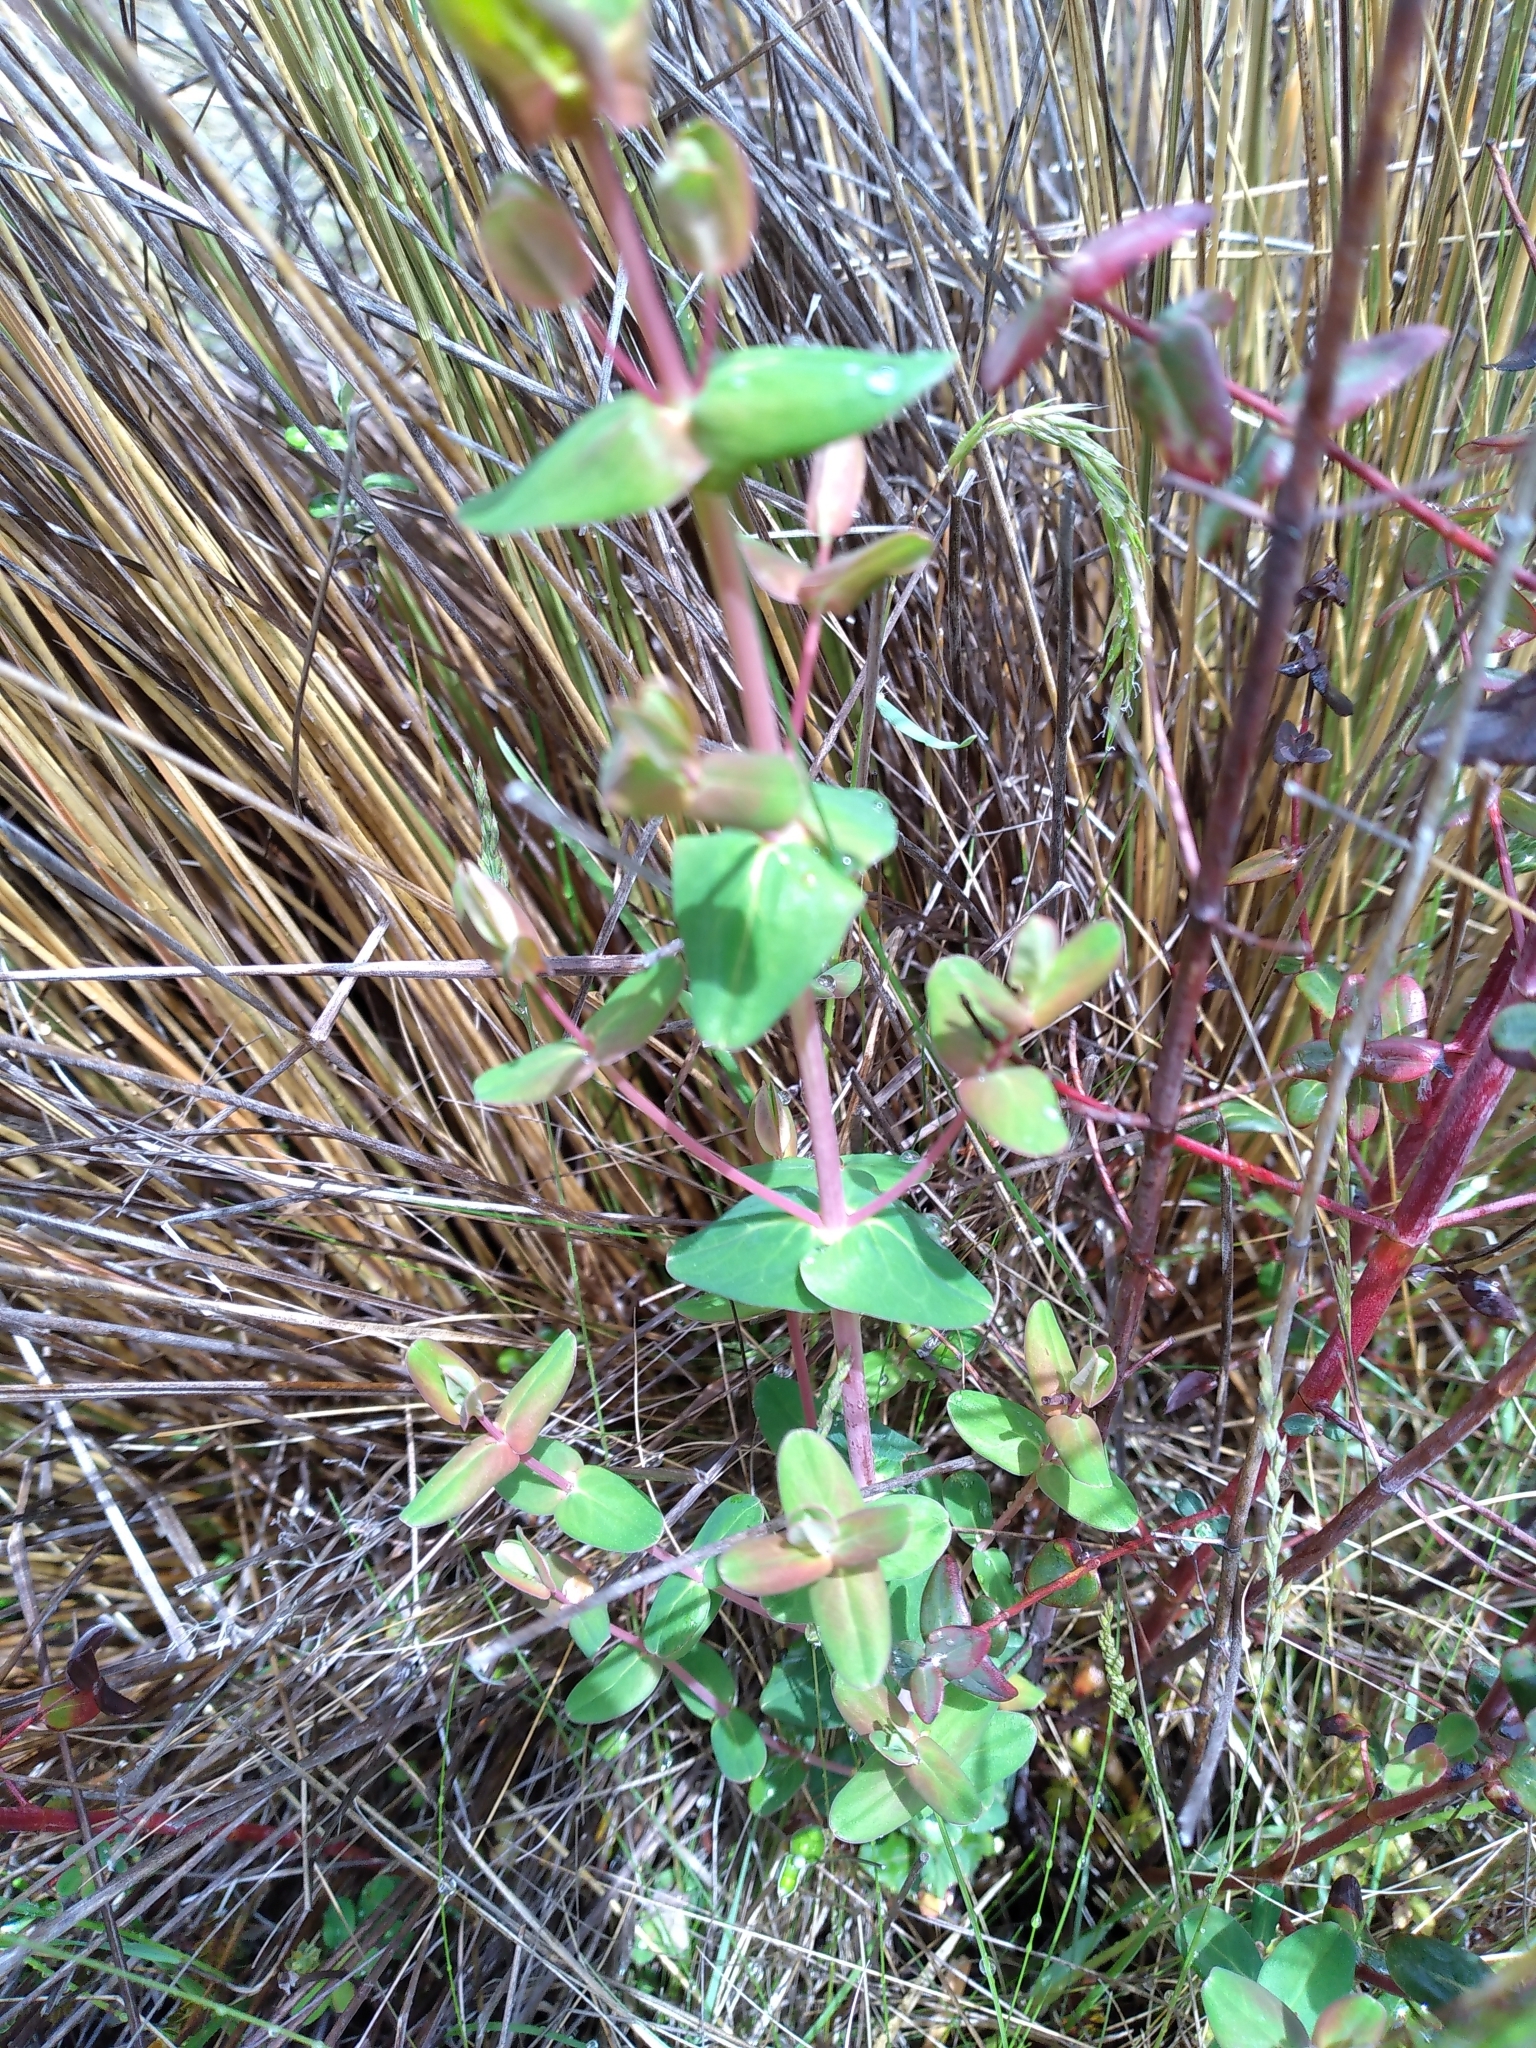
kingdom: Plantae
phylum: Tracheophyta
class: Magnoliopsida
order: Malpighiales
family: Hypericaceae
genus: Hypericum
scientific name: Hypericum pulchrum
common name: Slender st. john's-wort
